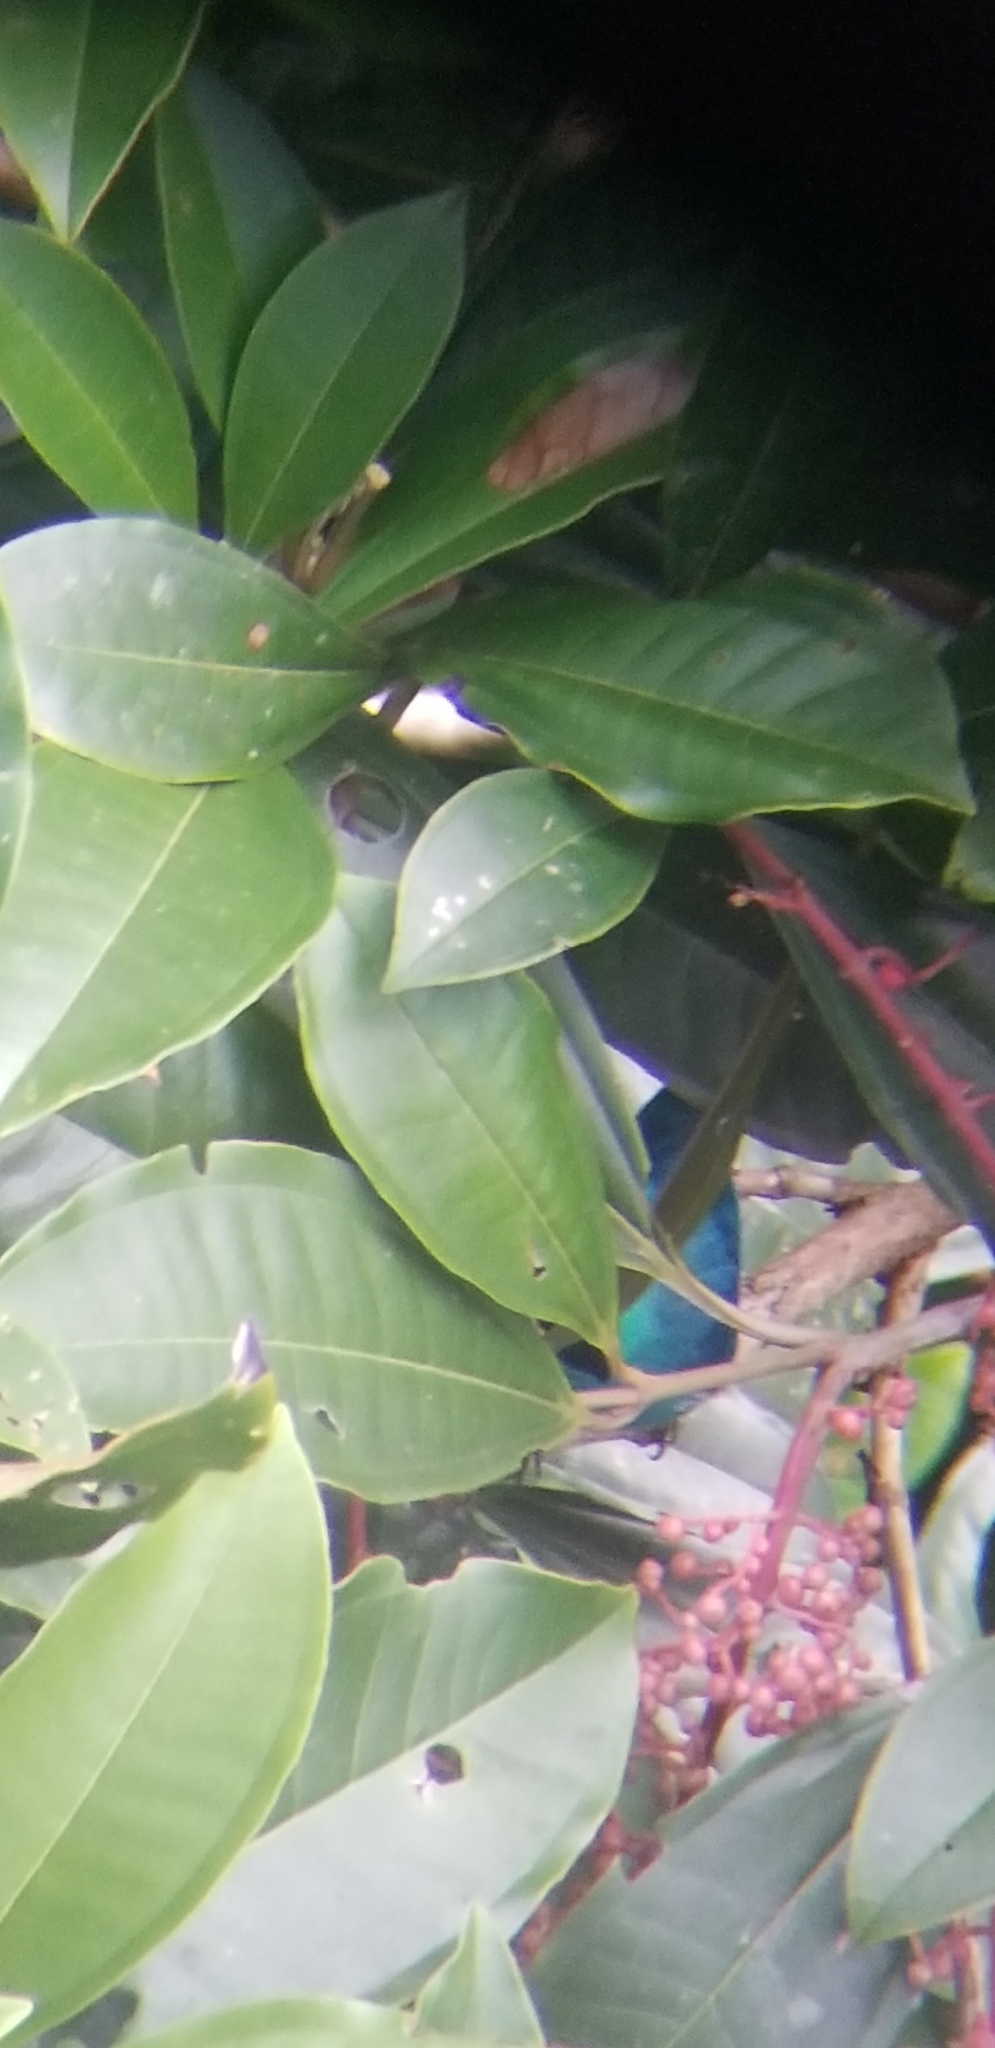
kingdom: Animalia
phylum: Chordata
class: Aves
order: Passeriformes
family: Thraupidae
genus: Chlorophanes
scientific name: Chlorophanes spiza
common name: Green honeycreeper
